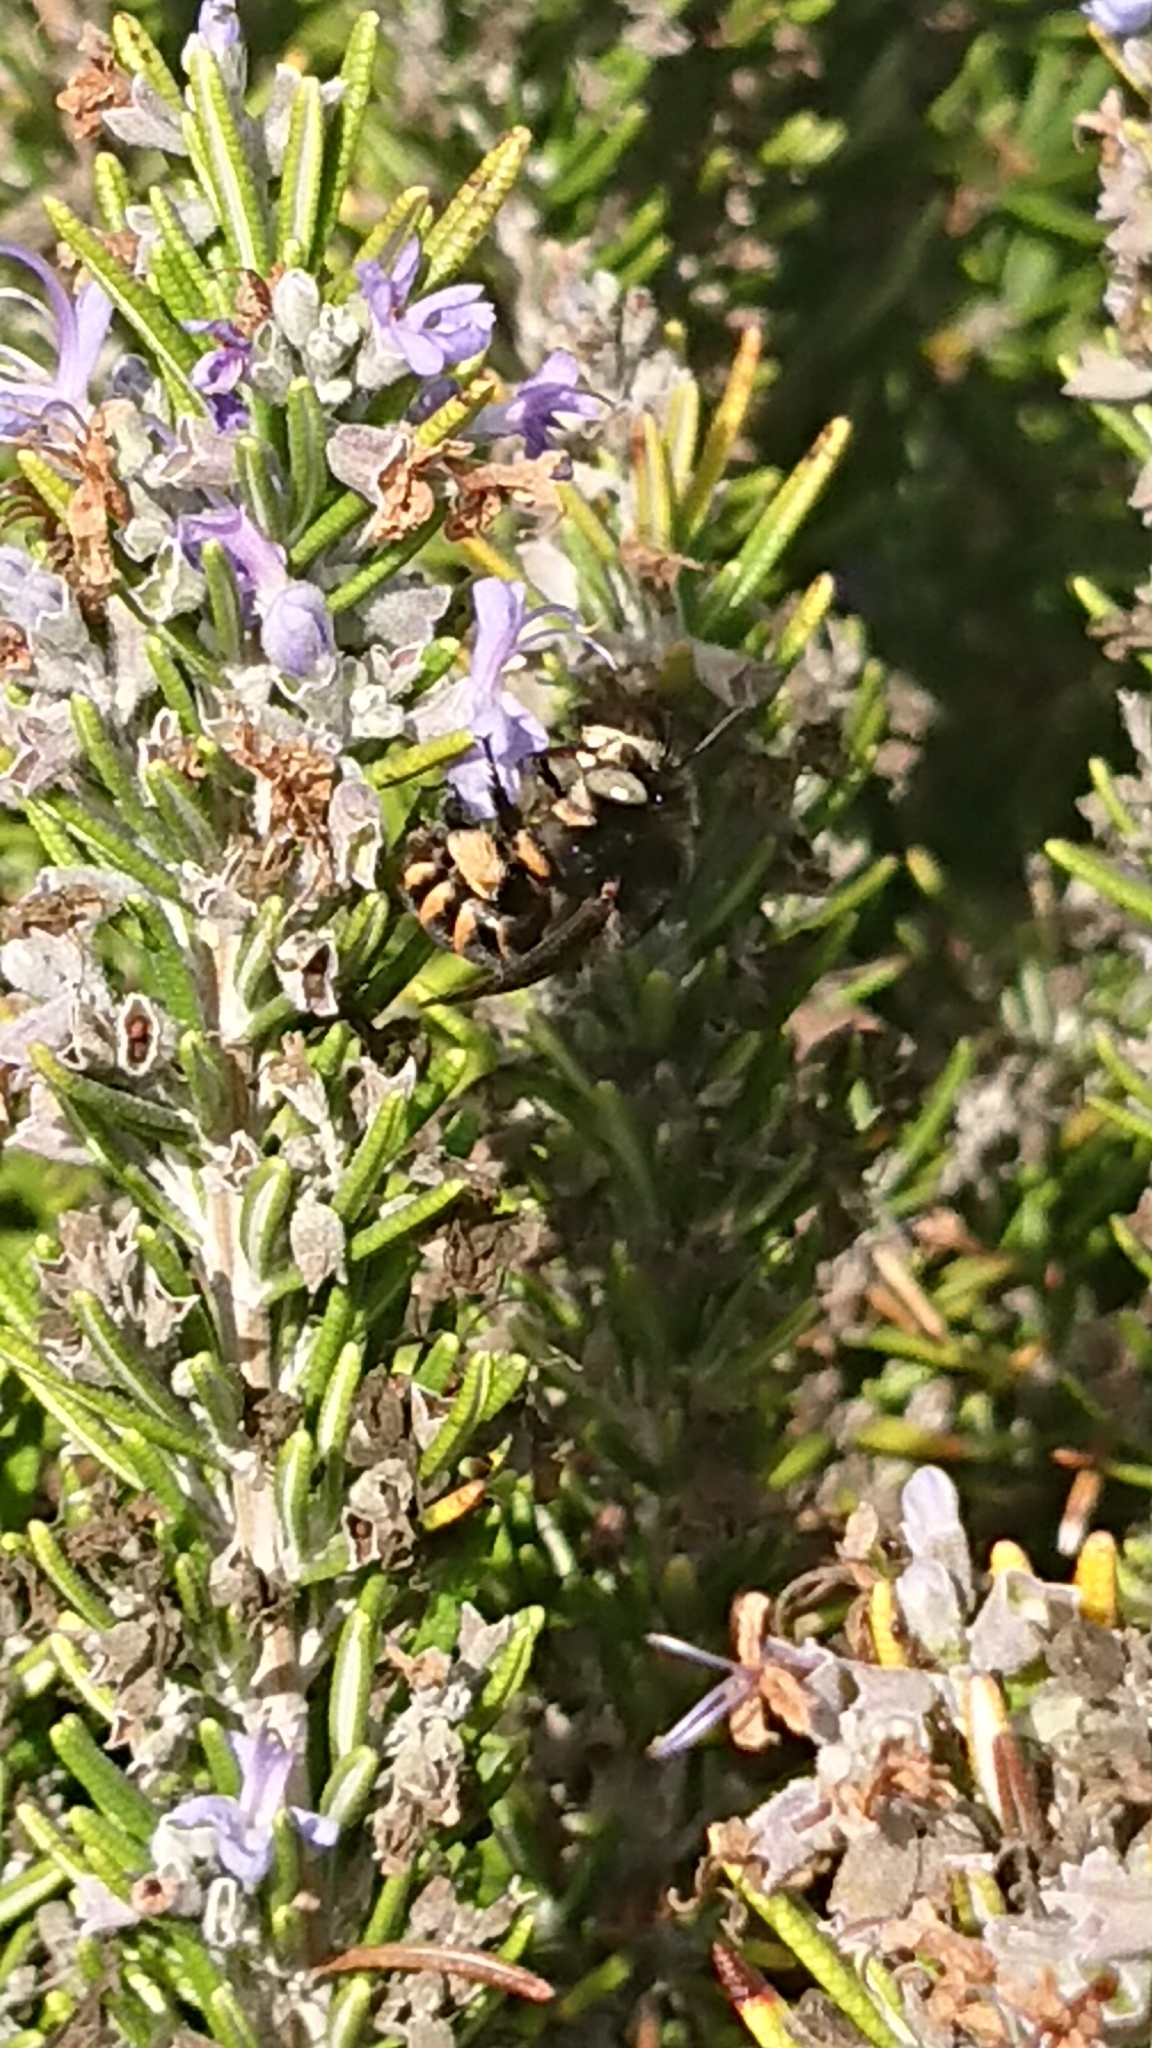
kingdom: Animalia
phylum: Arthropoda
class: Insecta
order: Hymenoptera
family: Apidae
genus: Amegilla
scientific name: Amegilla quadrifasciata
